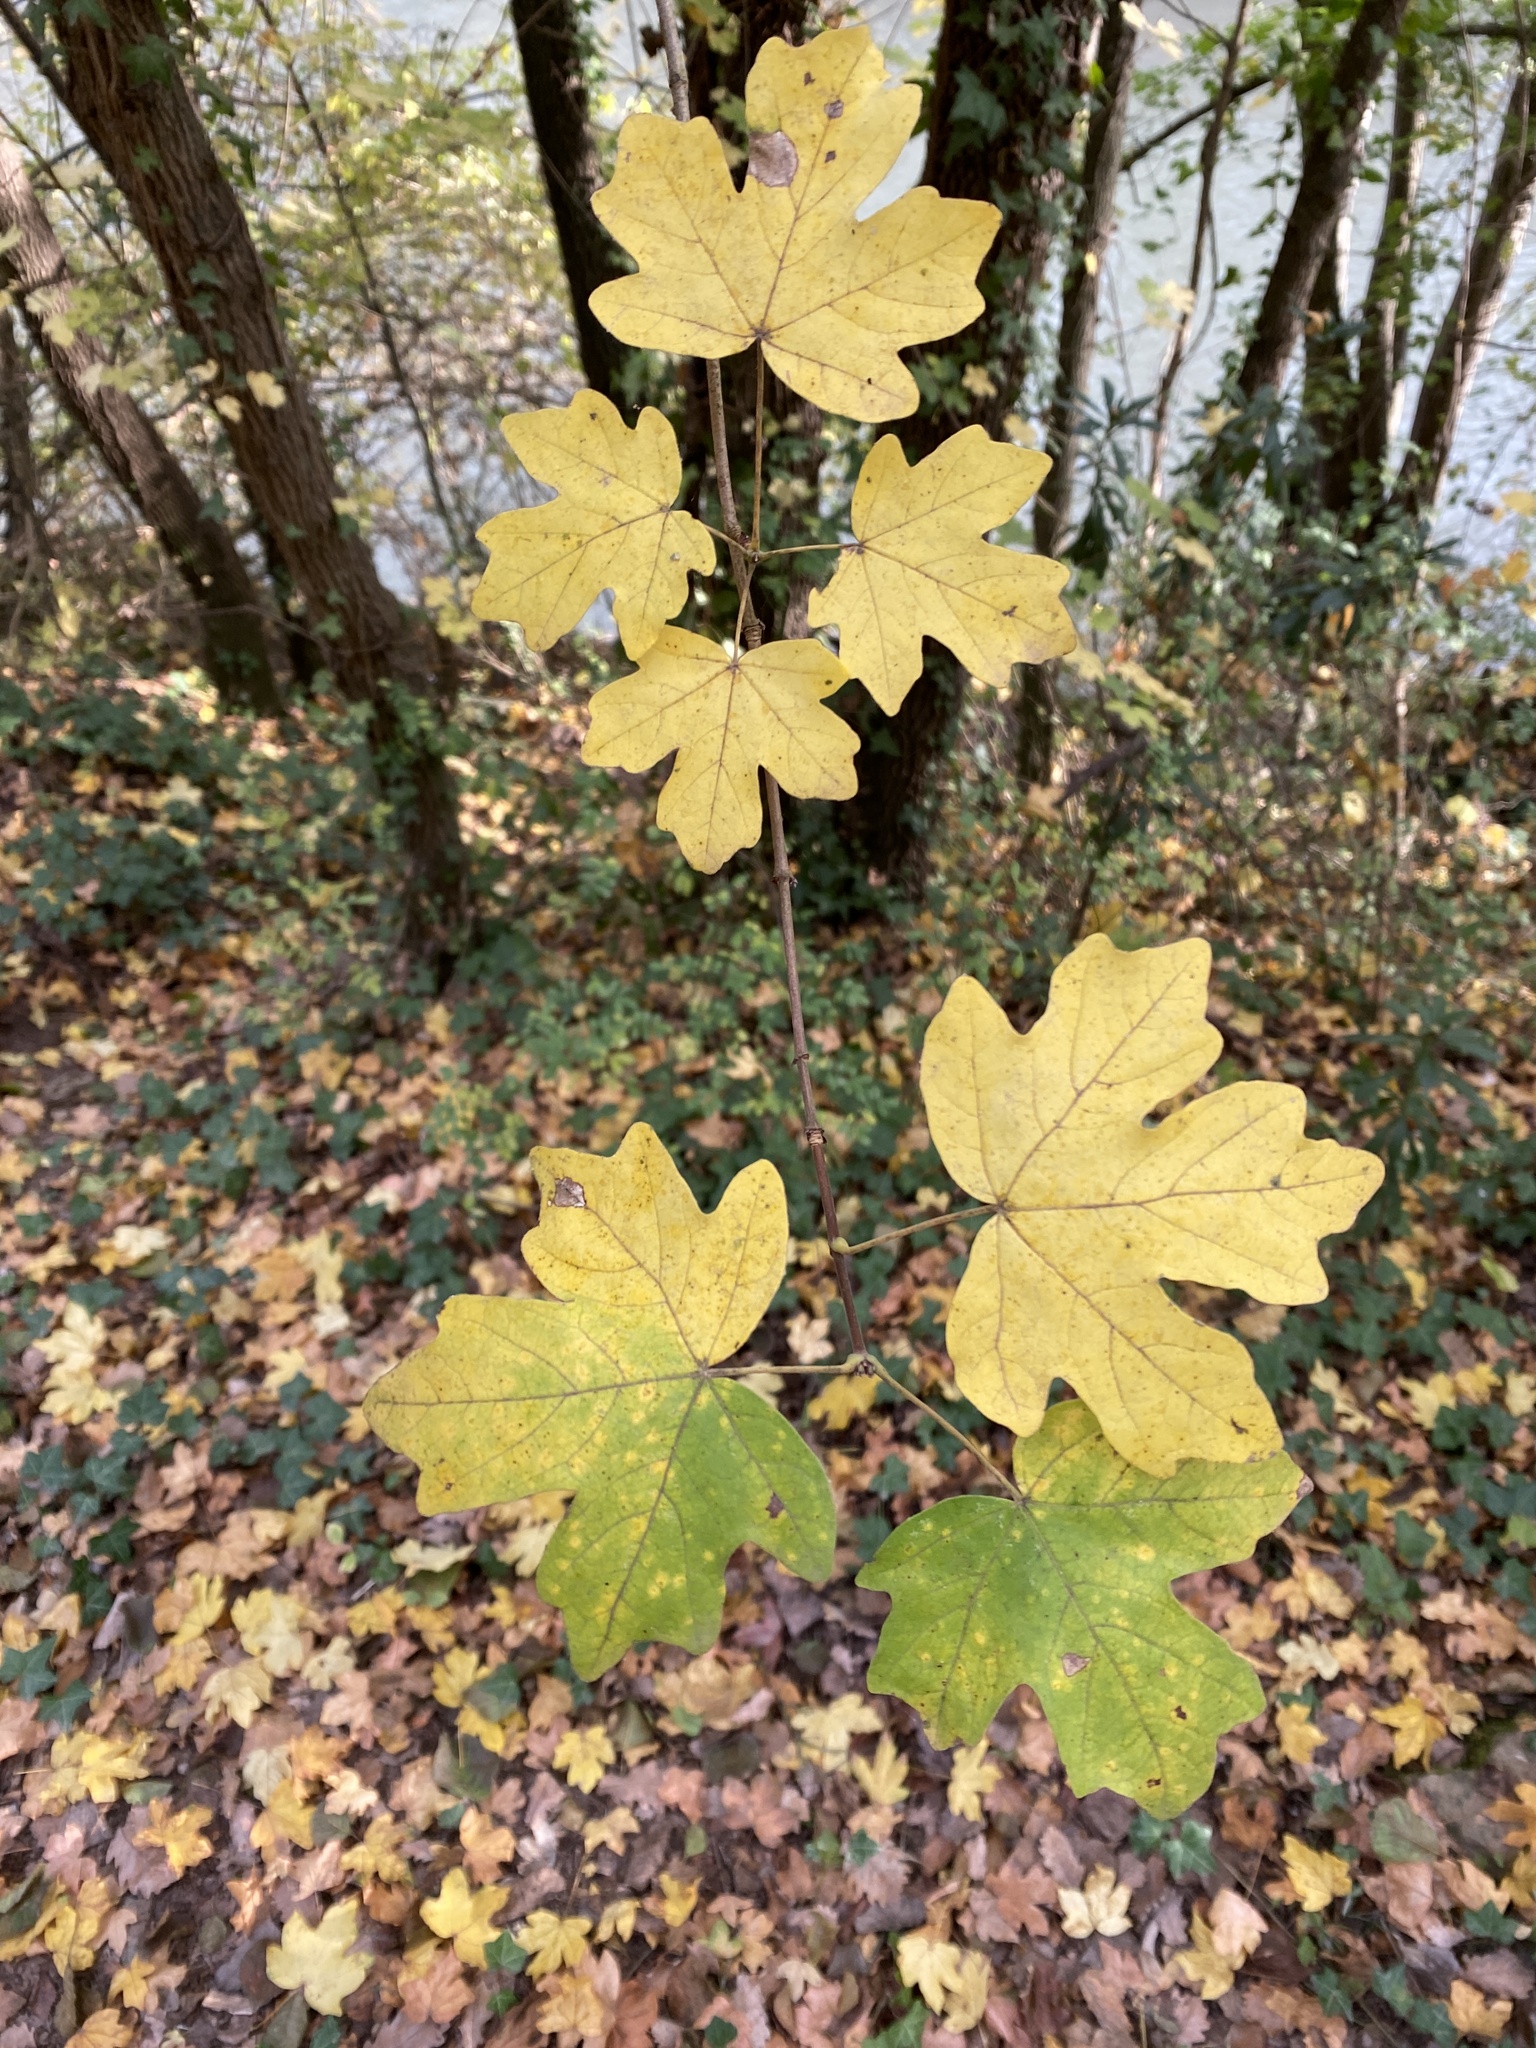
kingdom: Plantae
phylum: Tracheophyta
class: Magnoliopsida
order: Sapindales
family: Sapindaceae
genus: Acer
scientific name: Acer campestre
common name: Field maple
